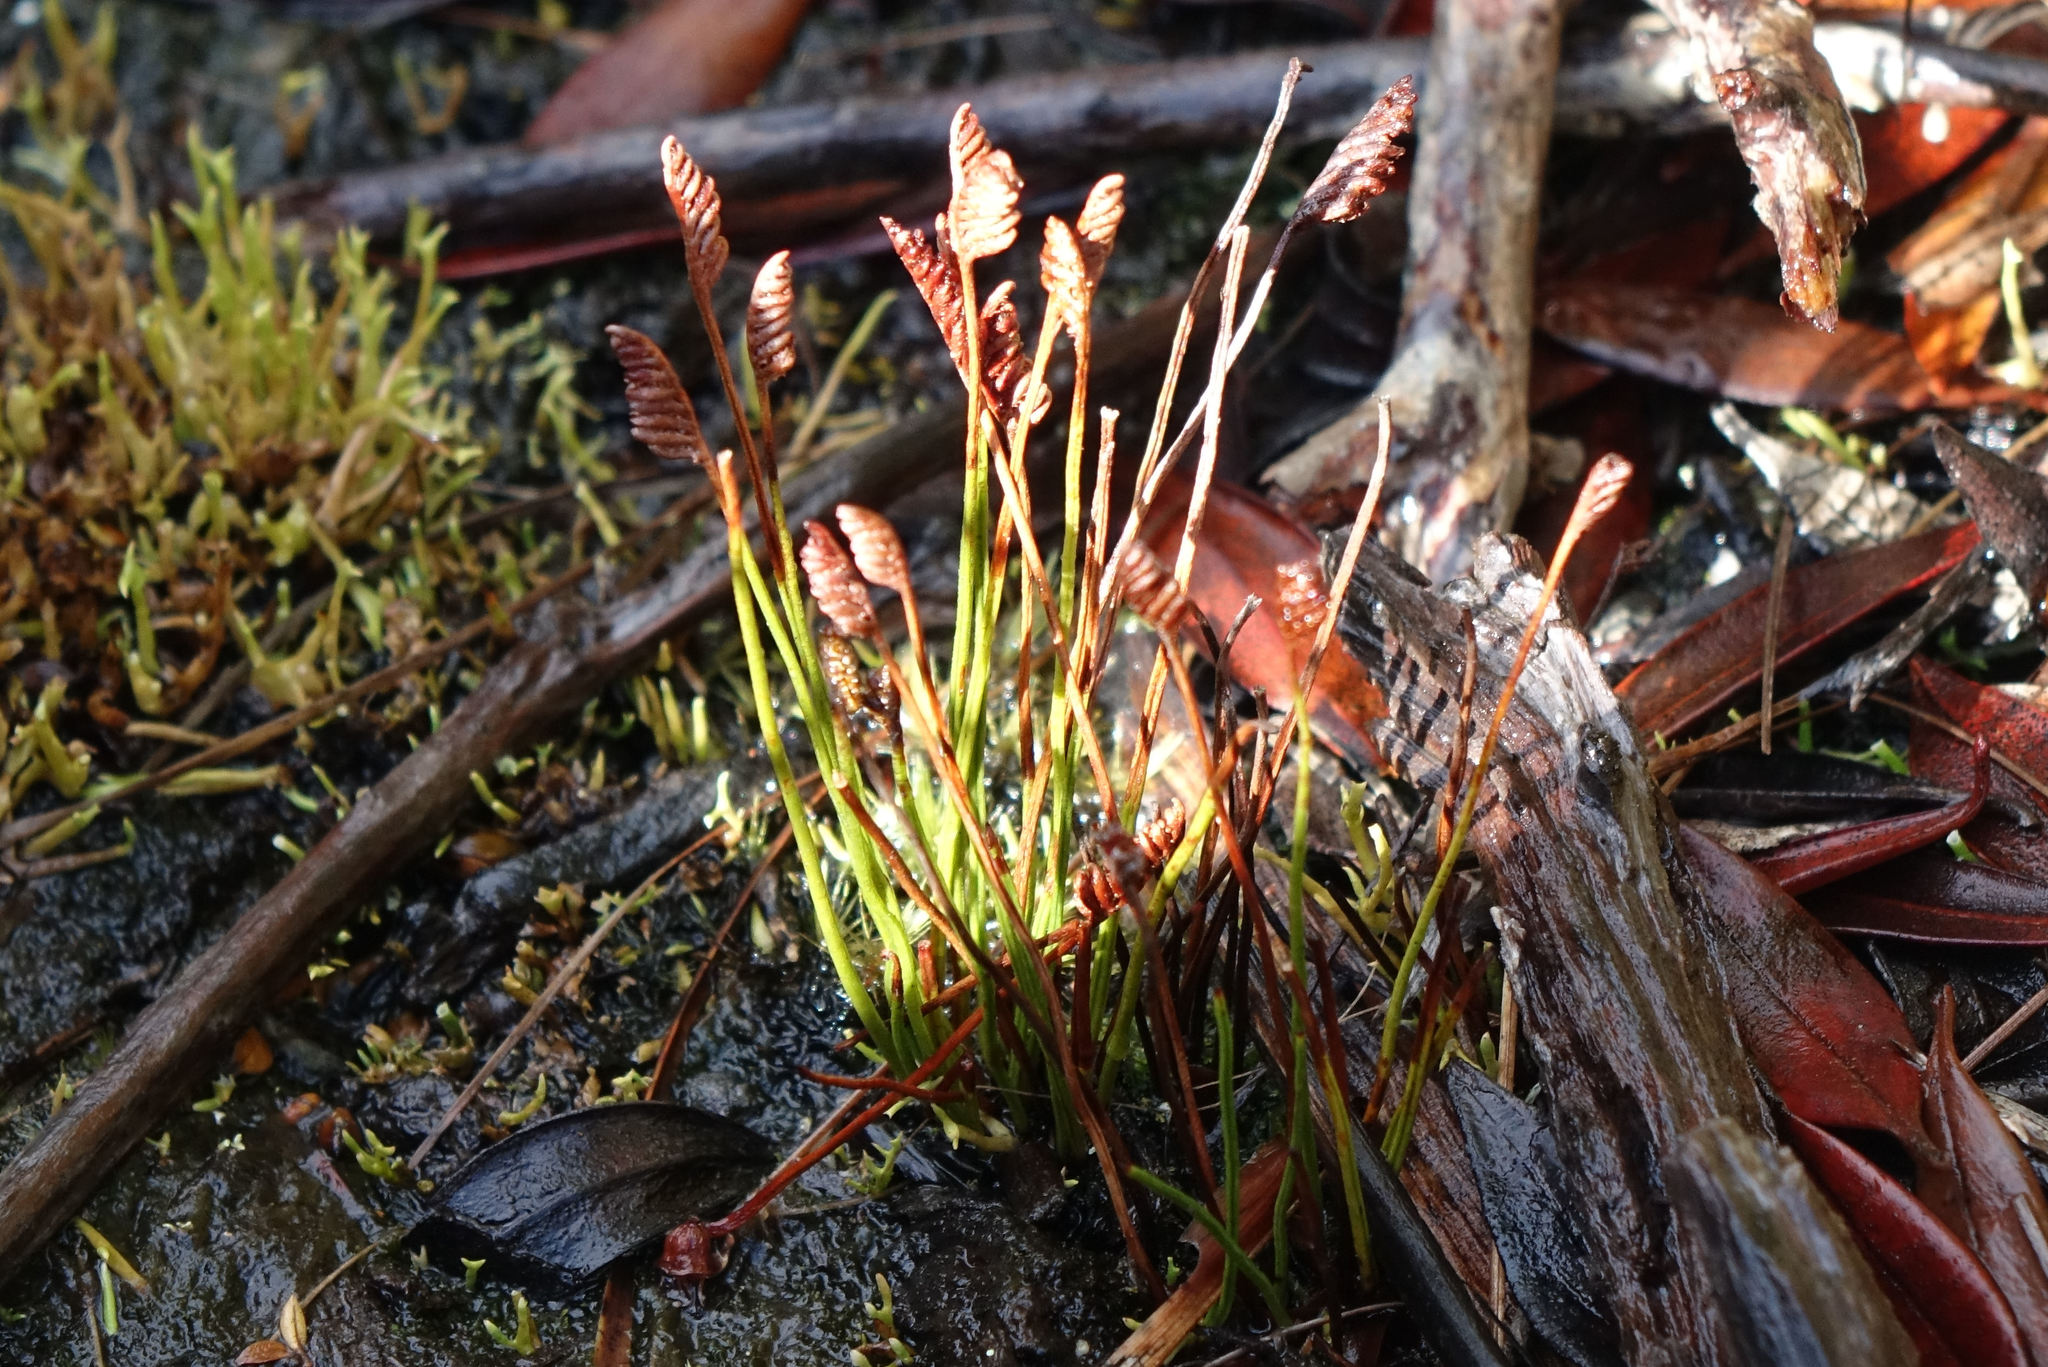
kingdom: Plantae
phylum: Tracheophyta
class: Polypodiopsida
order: Schizaeales
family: Schizaeaceae
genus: Microschizaea
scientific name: Microschizaea australis
